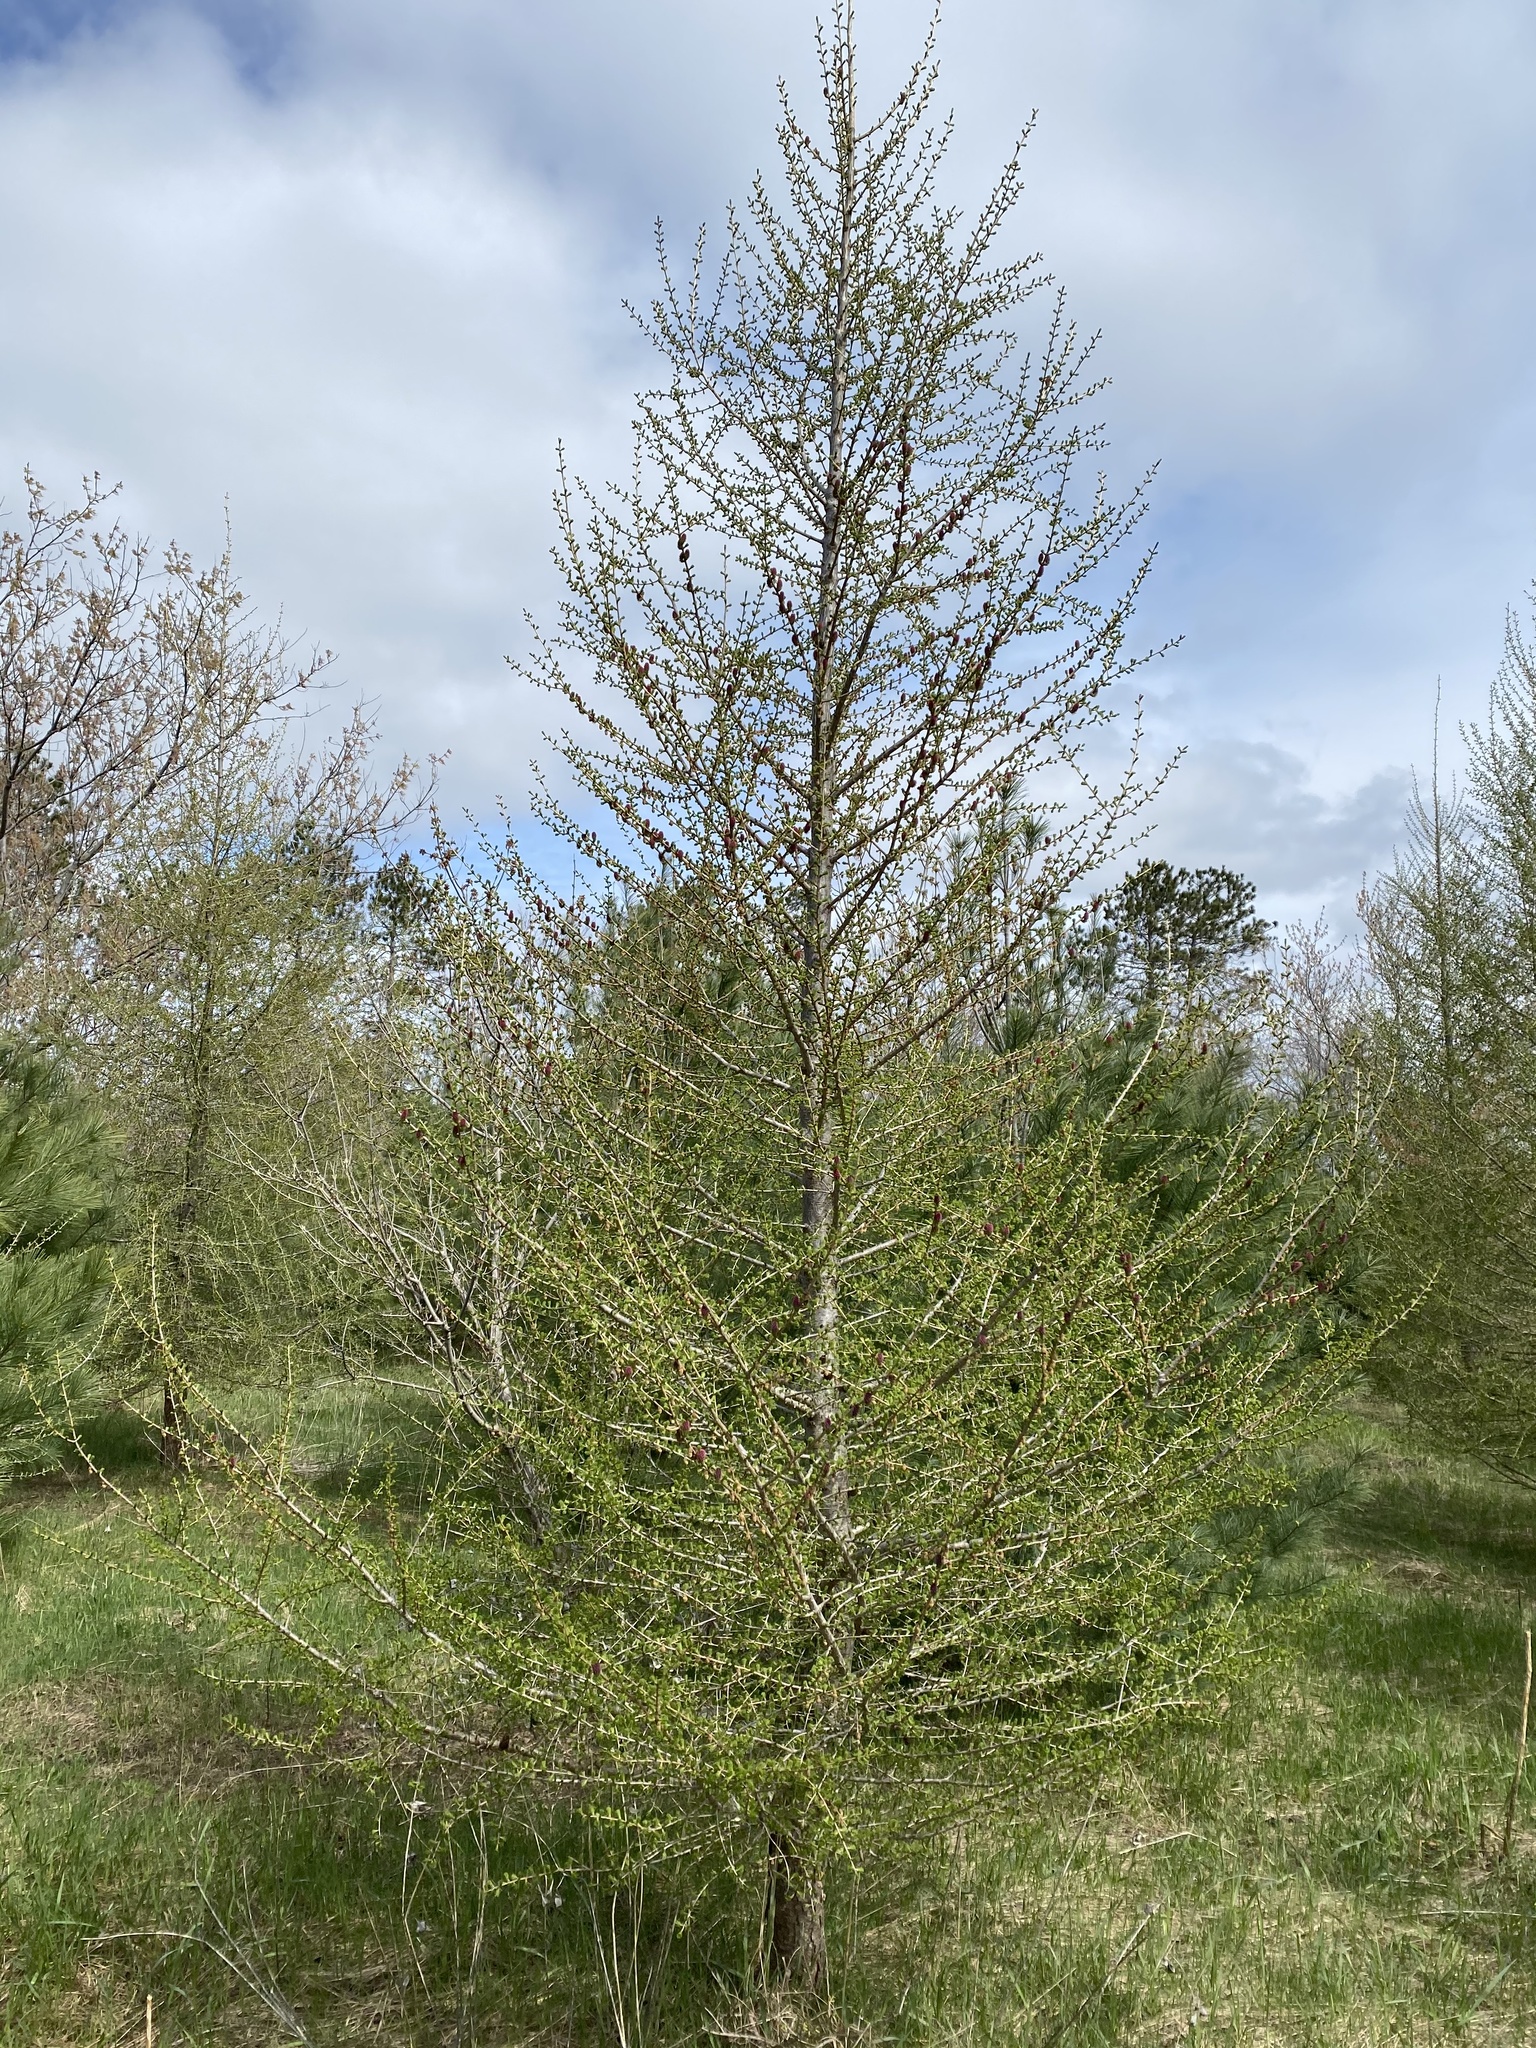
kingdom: Plantae
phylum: Tracheophyta
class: Pinopsida
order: Pinales
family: Pinaceae
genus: Larix
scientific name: Larix decidua
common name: European larch
